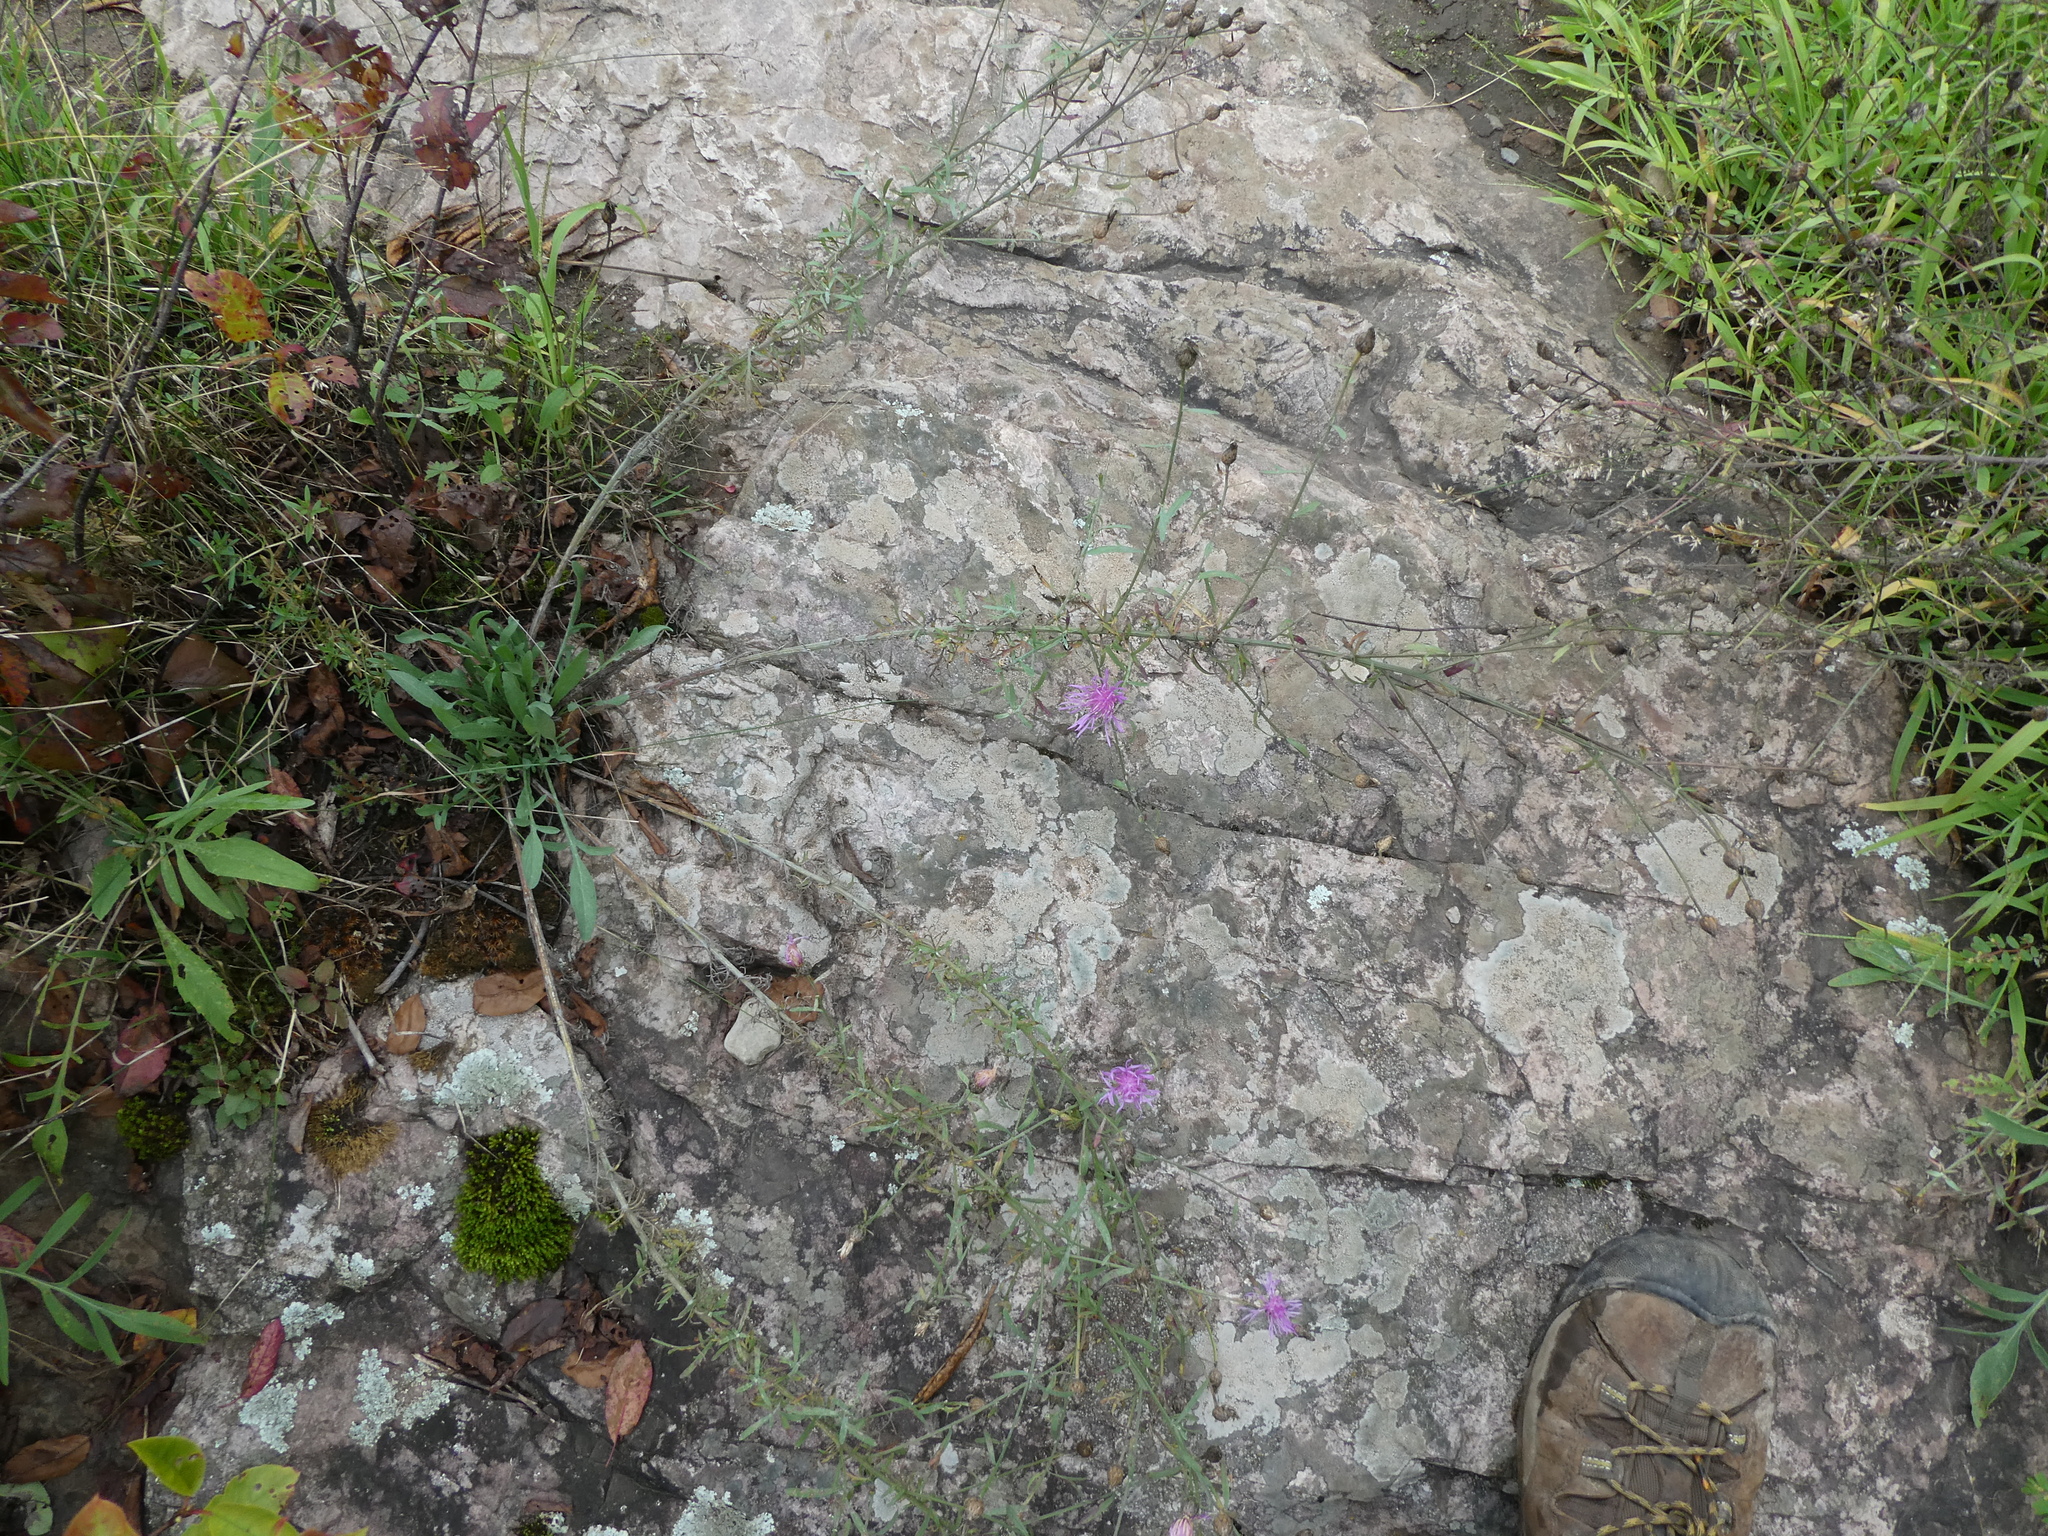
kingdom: Plantae
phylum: Tracheophyta
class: Magnoliopsida
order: Asterales
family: Asteraceae
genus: Centaurea
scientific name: Centaurea stoebe
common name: Spotted knapweed
